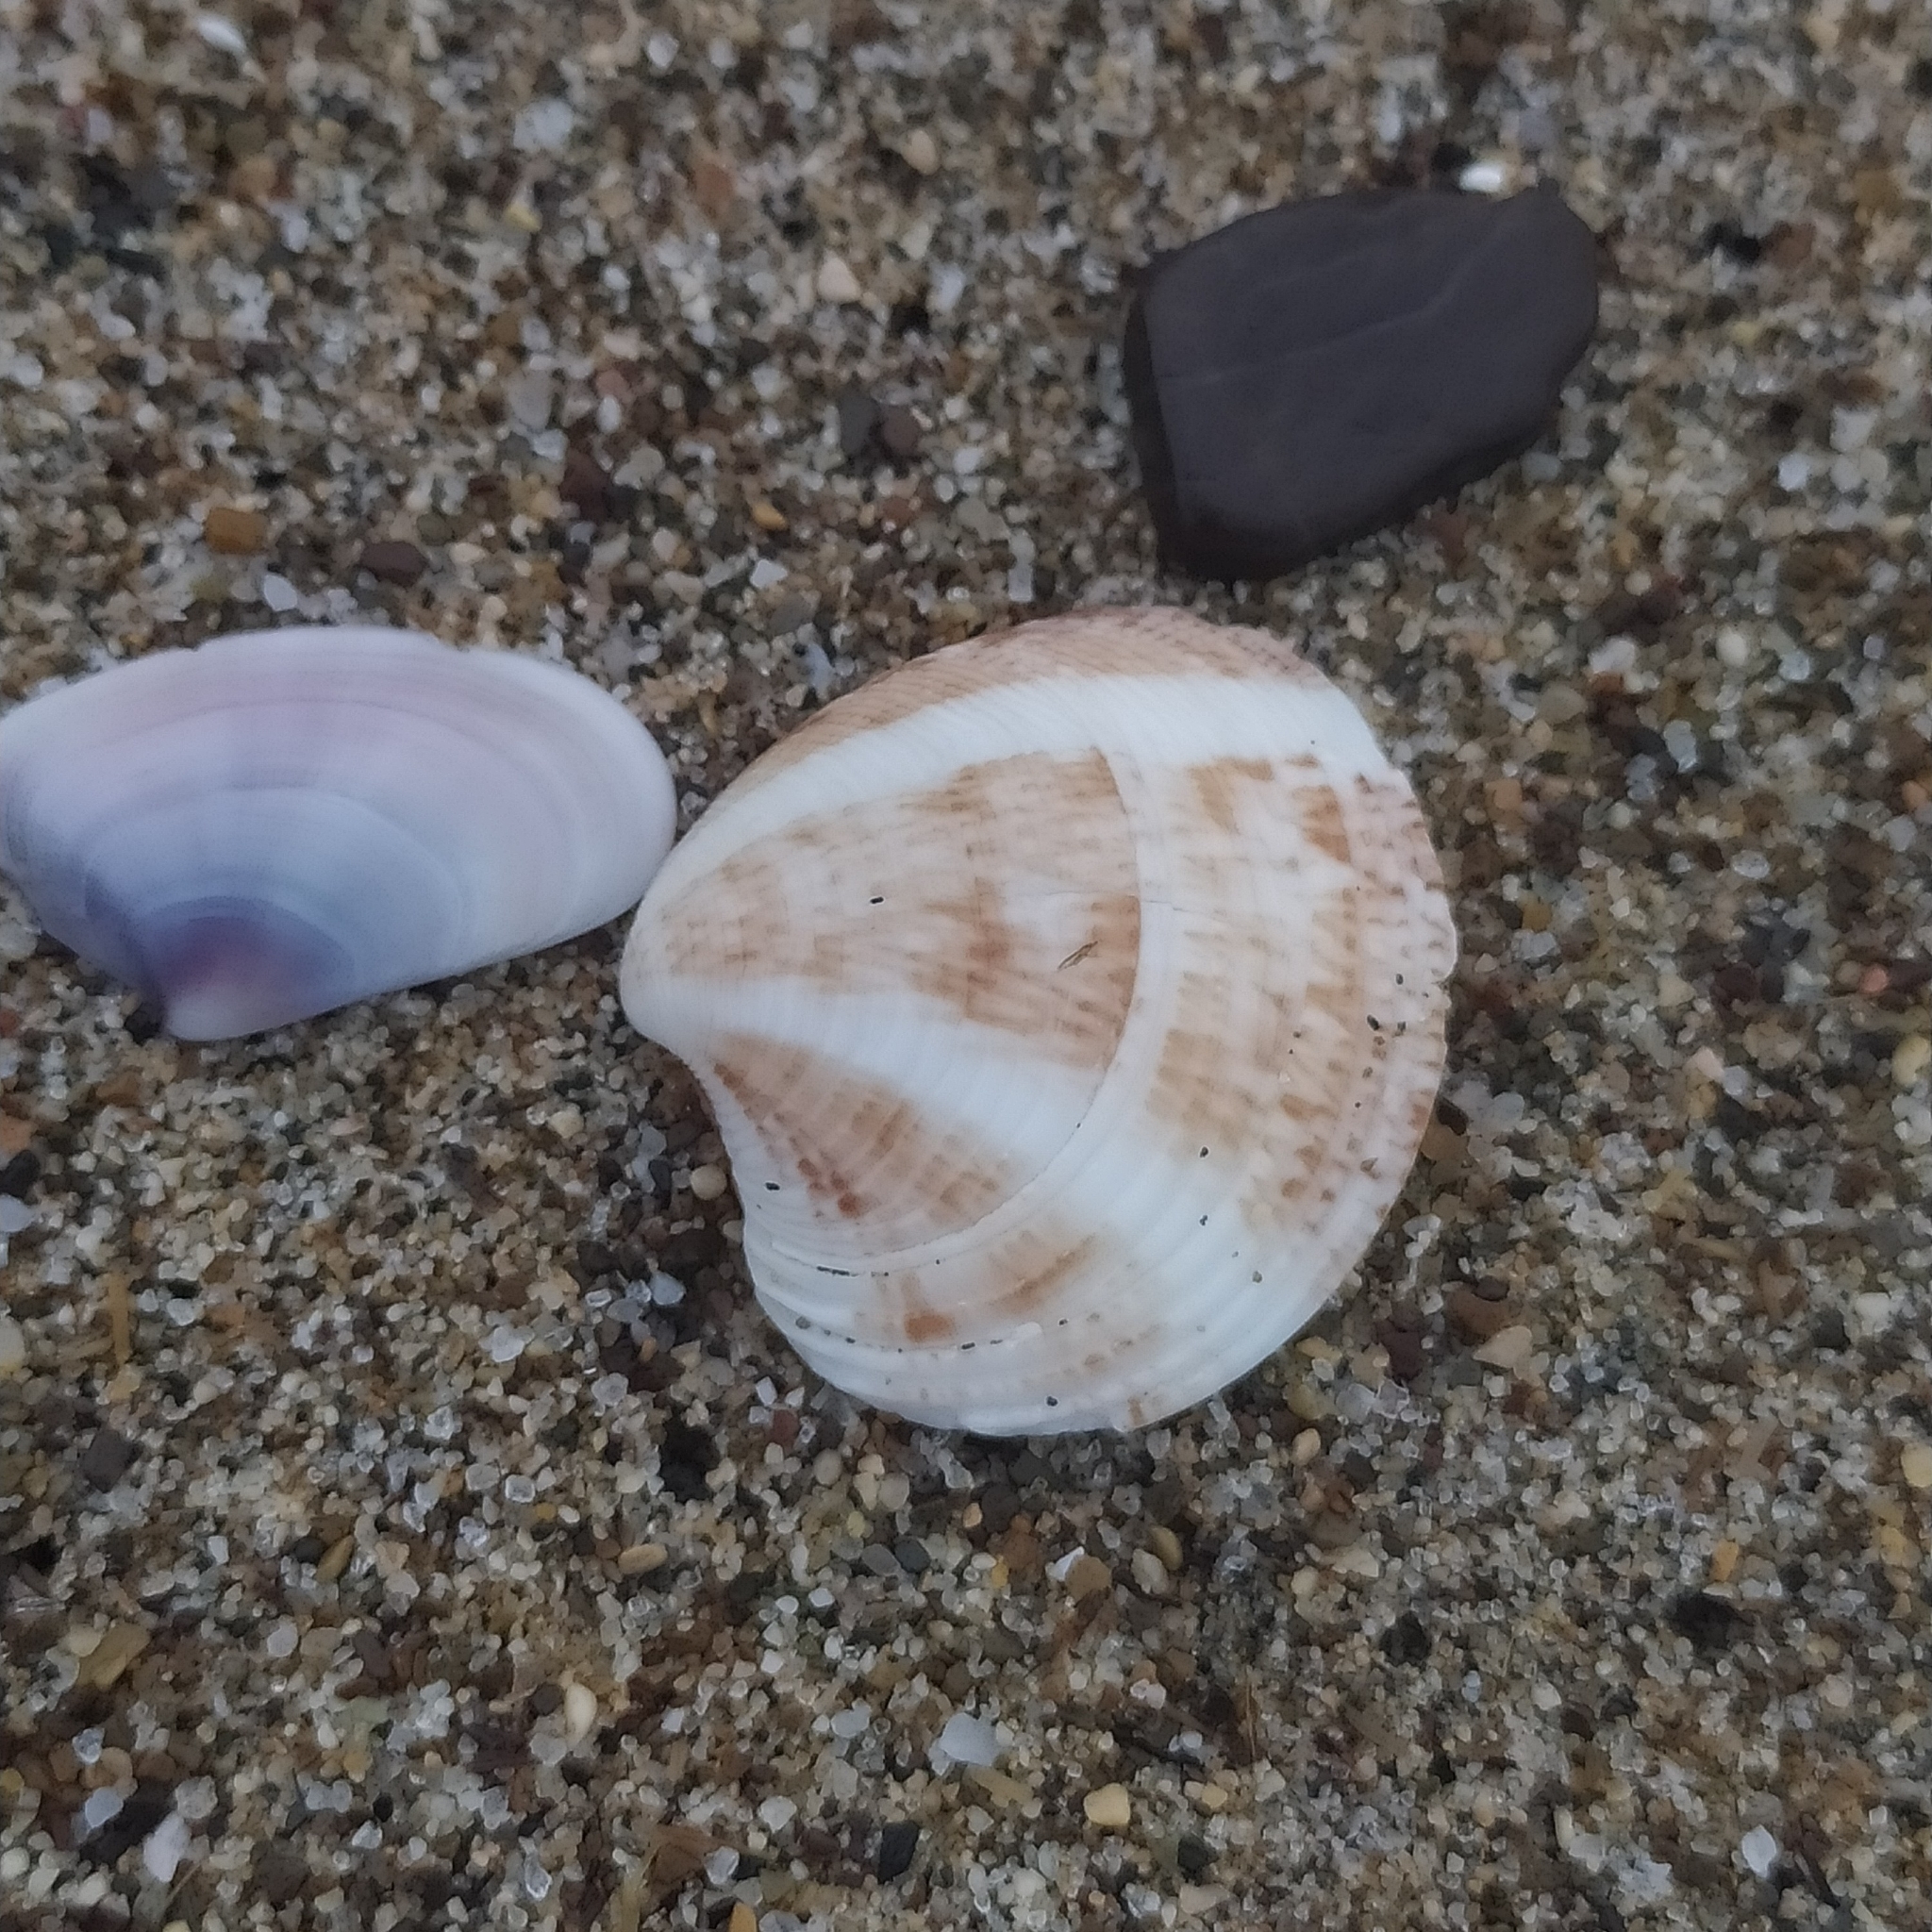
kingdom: Animalia
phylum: Mollusca
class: Bivalvia
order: Venerida
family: Veneridae
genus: Chamelea
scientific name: Chamelea gallina
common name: Chicken venus
